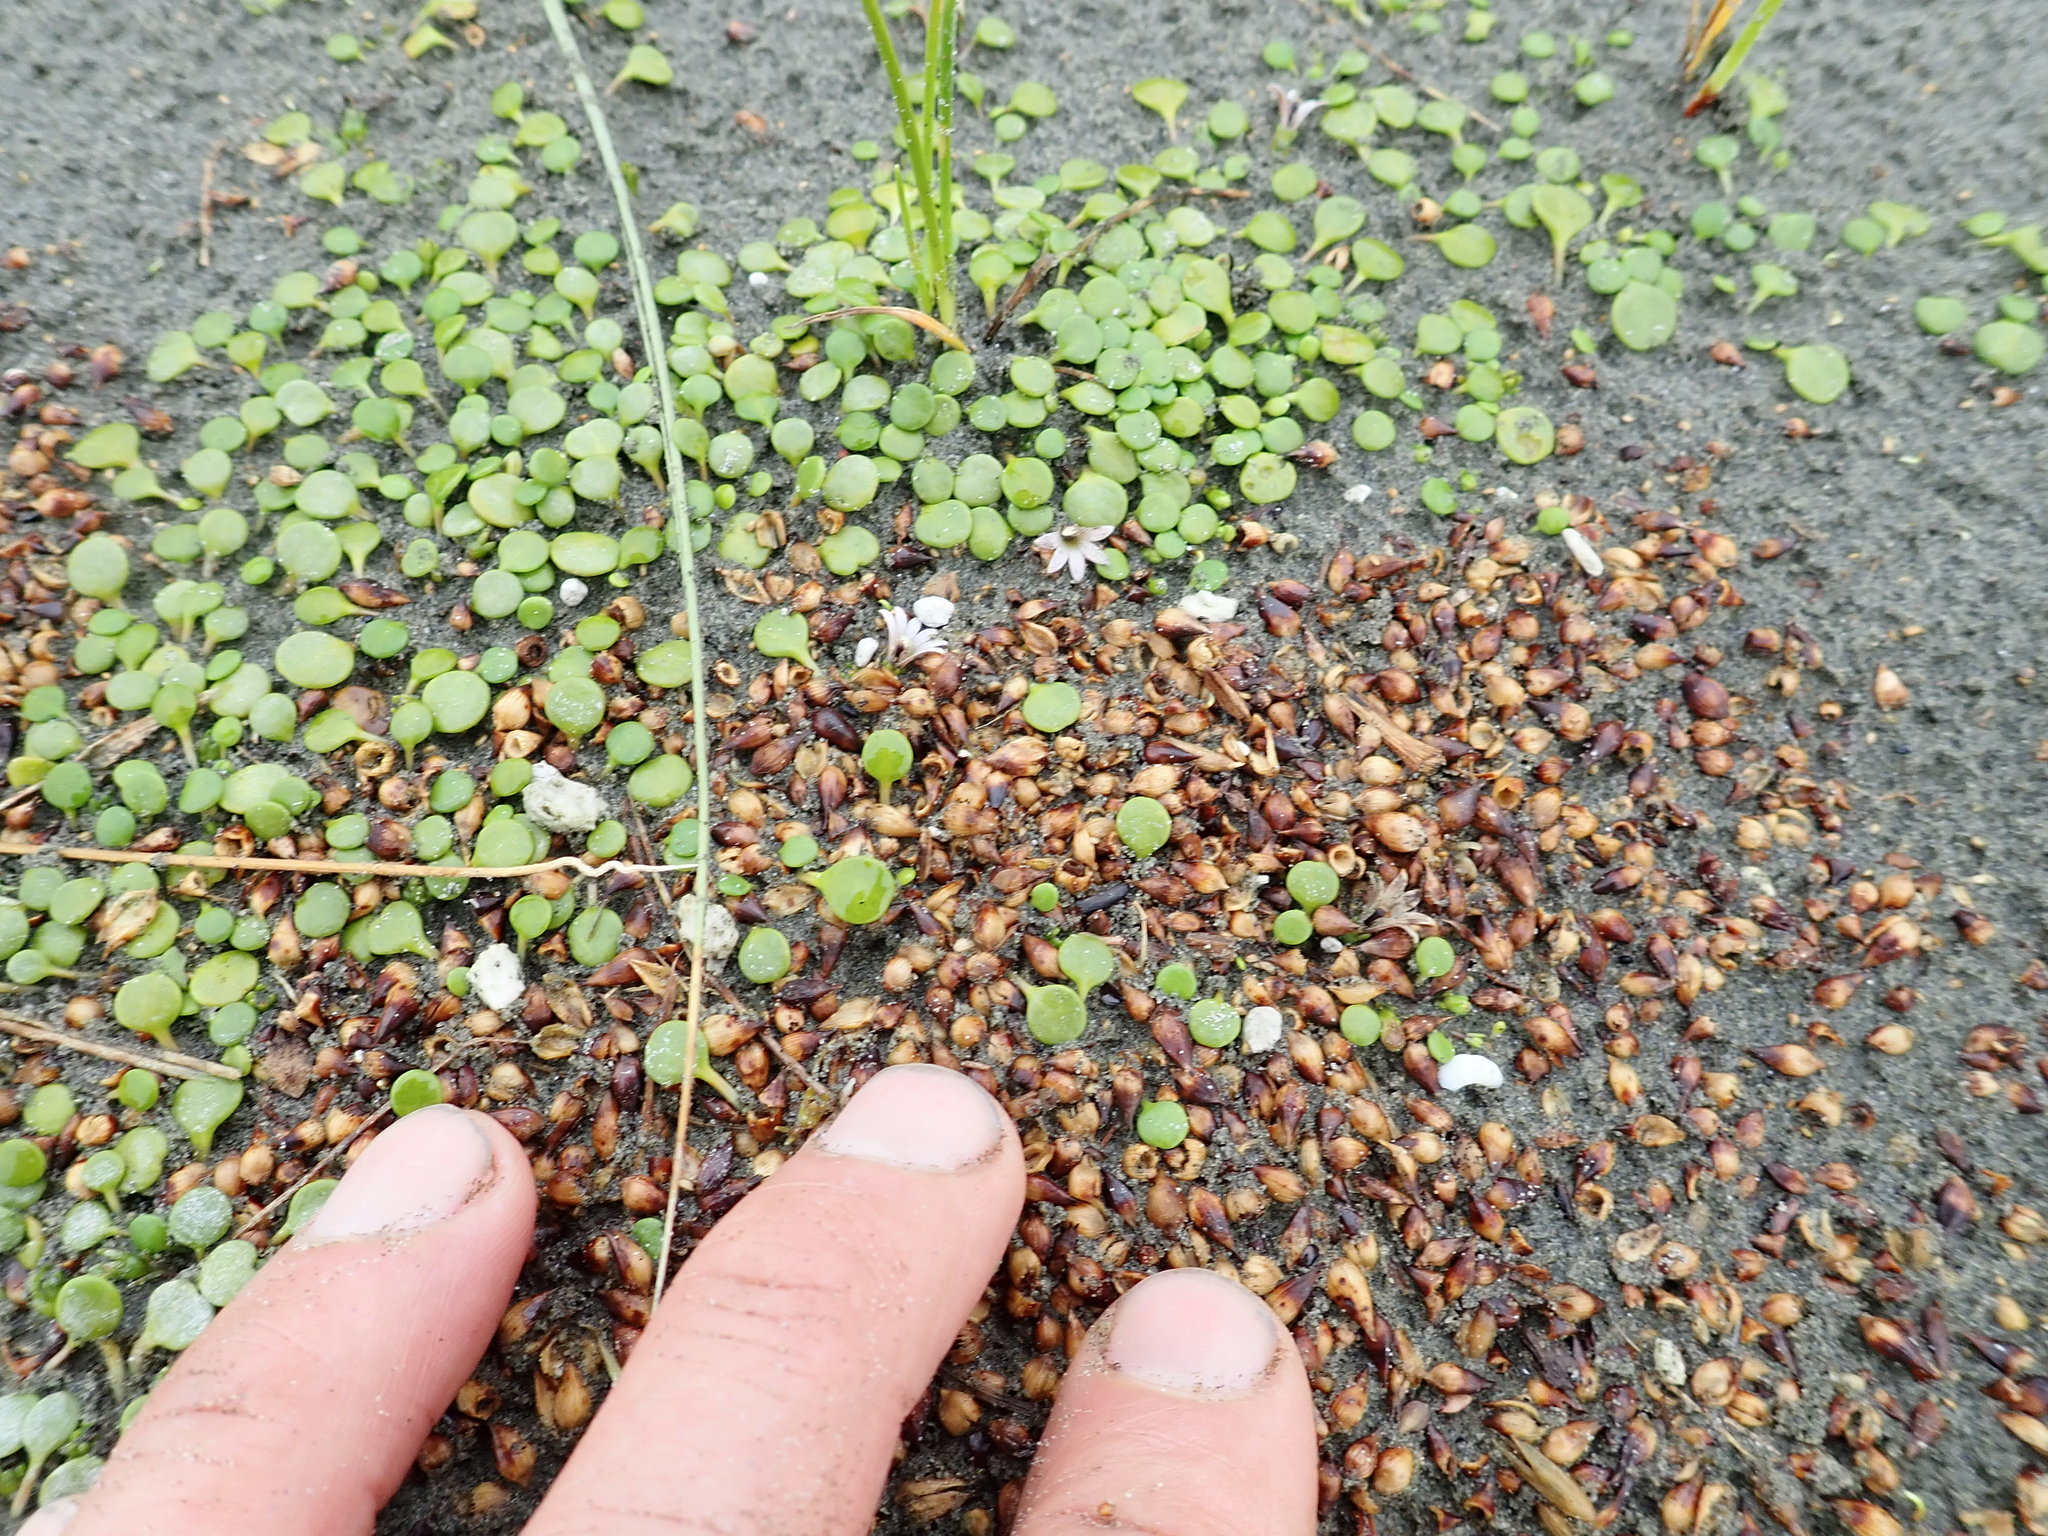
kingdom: Plantae
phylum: Tracheophyta
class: Magnoliopsida
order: Asterales
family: Goodeniaceae
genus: Goodenia
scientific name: Goodenia heenanii
